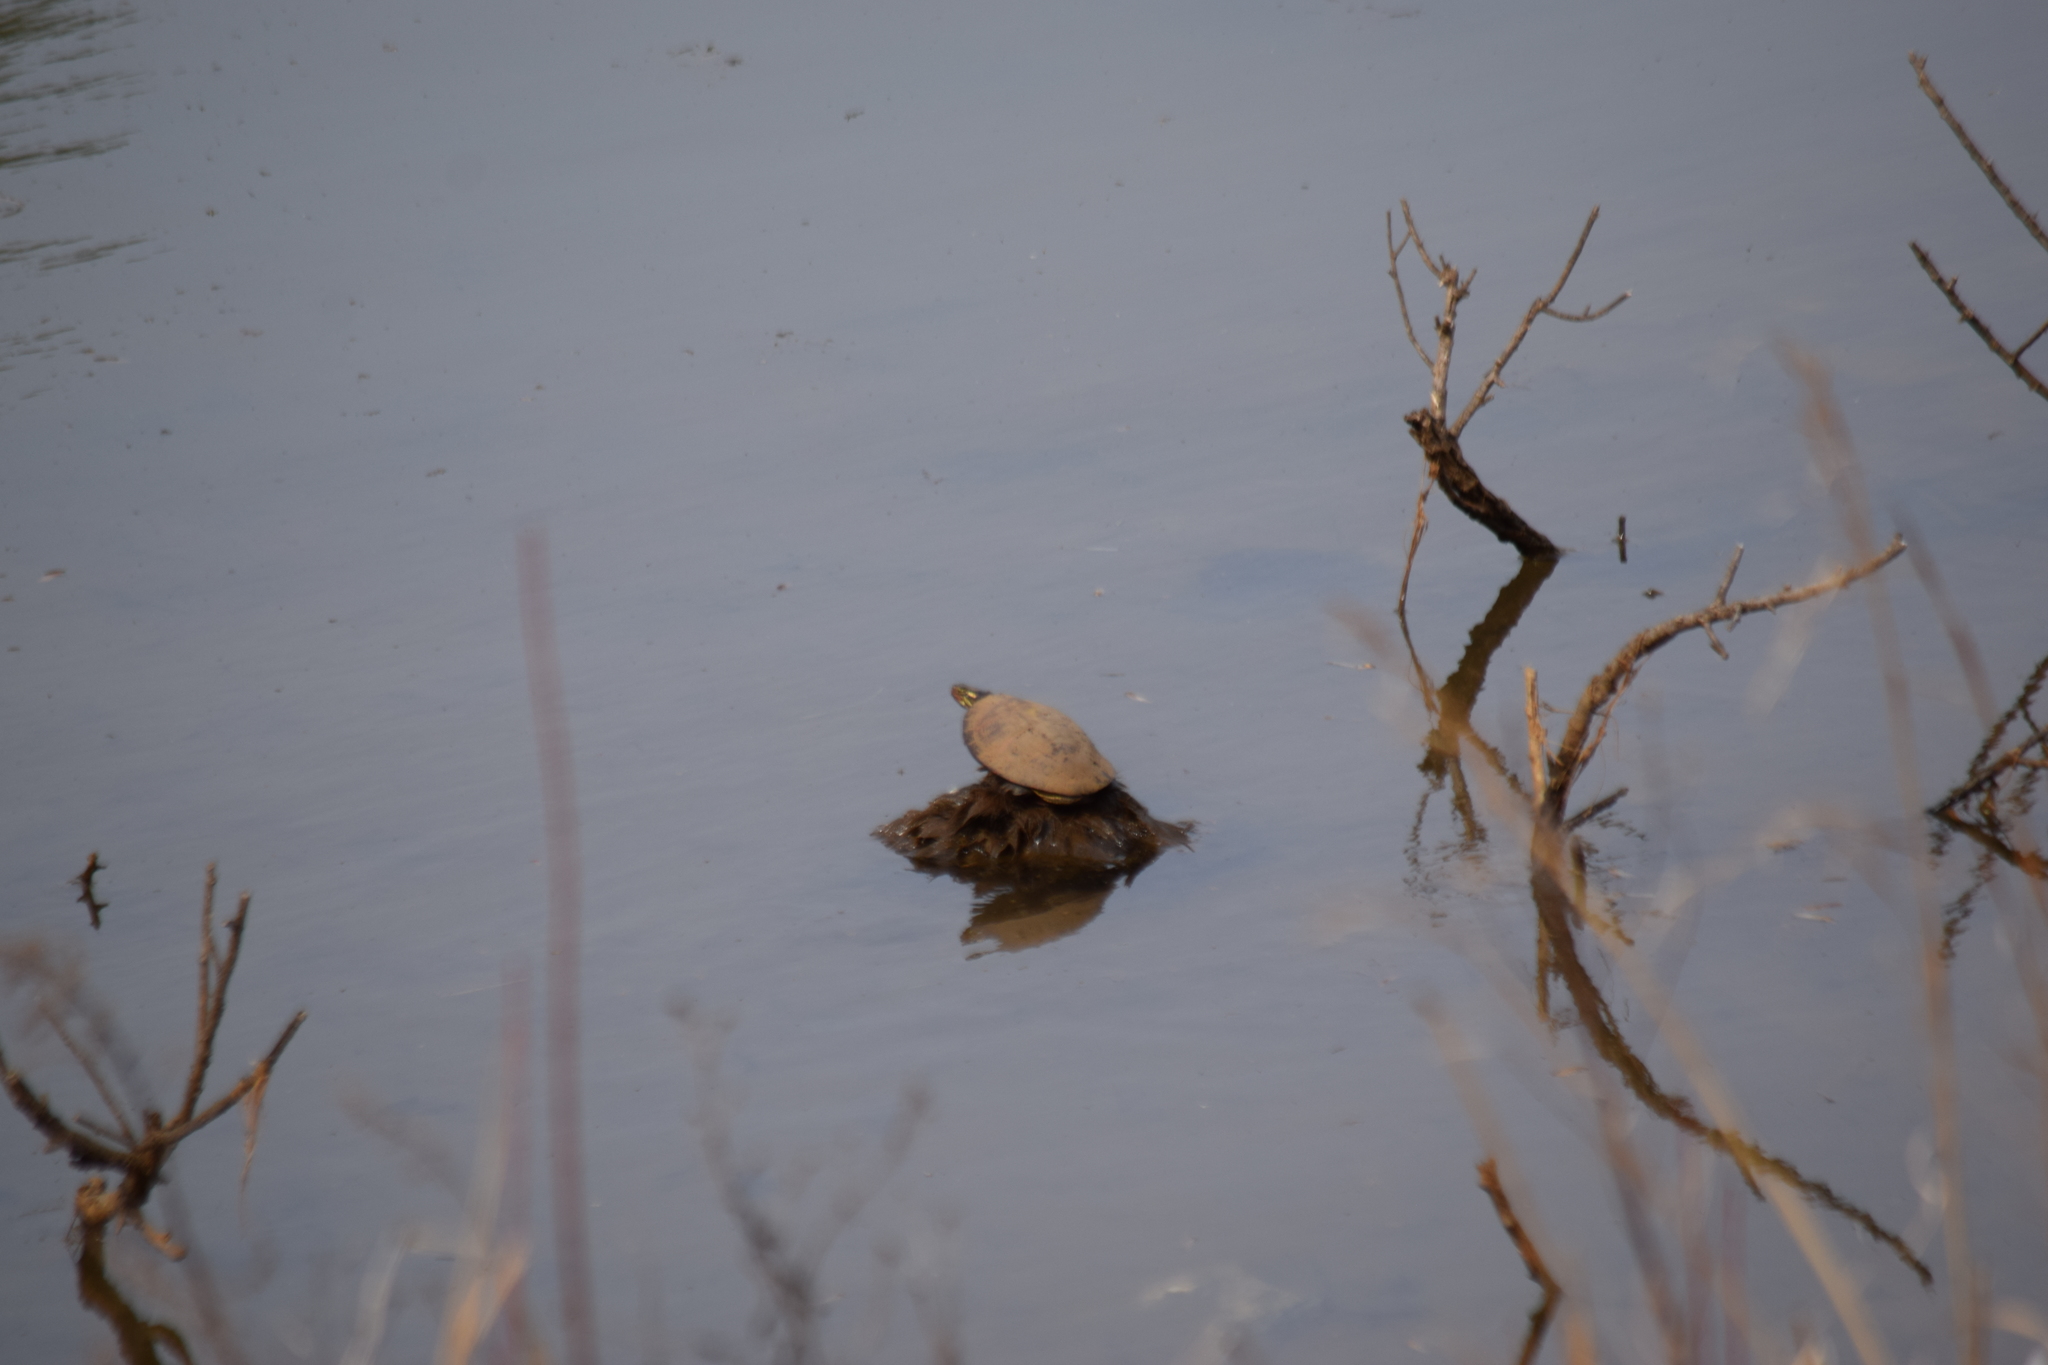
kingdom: Animalia
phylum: Chordata
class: Testudines
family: Emydidae
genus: Chrysemys
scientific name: Chrysemys picta
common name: Painted turtle
